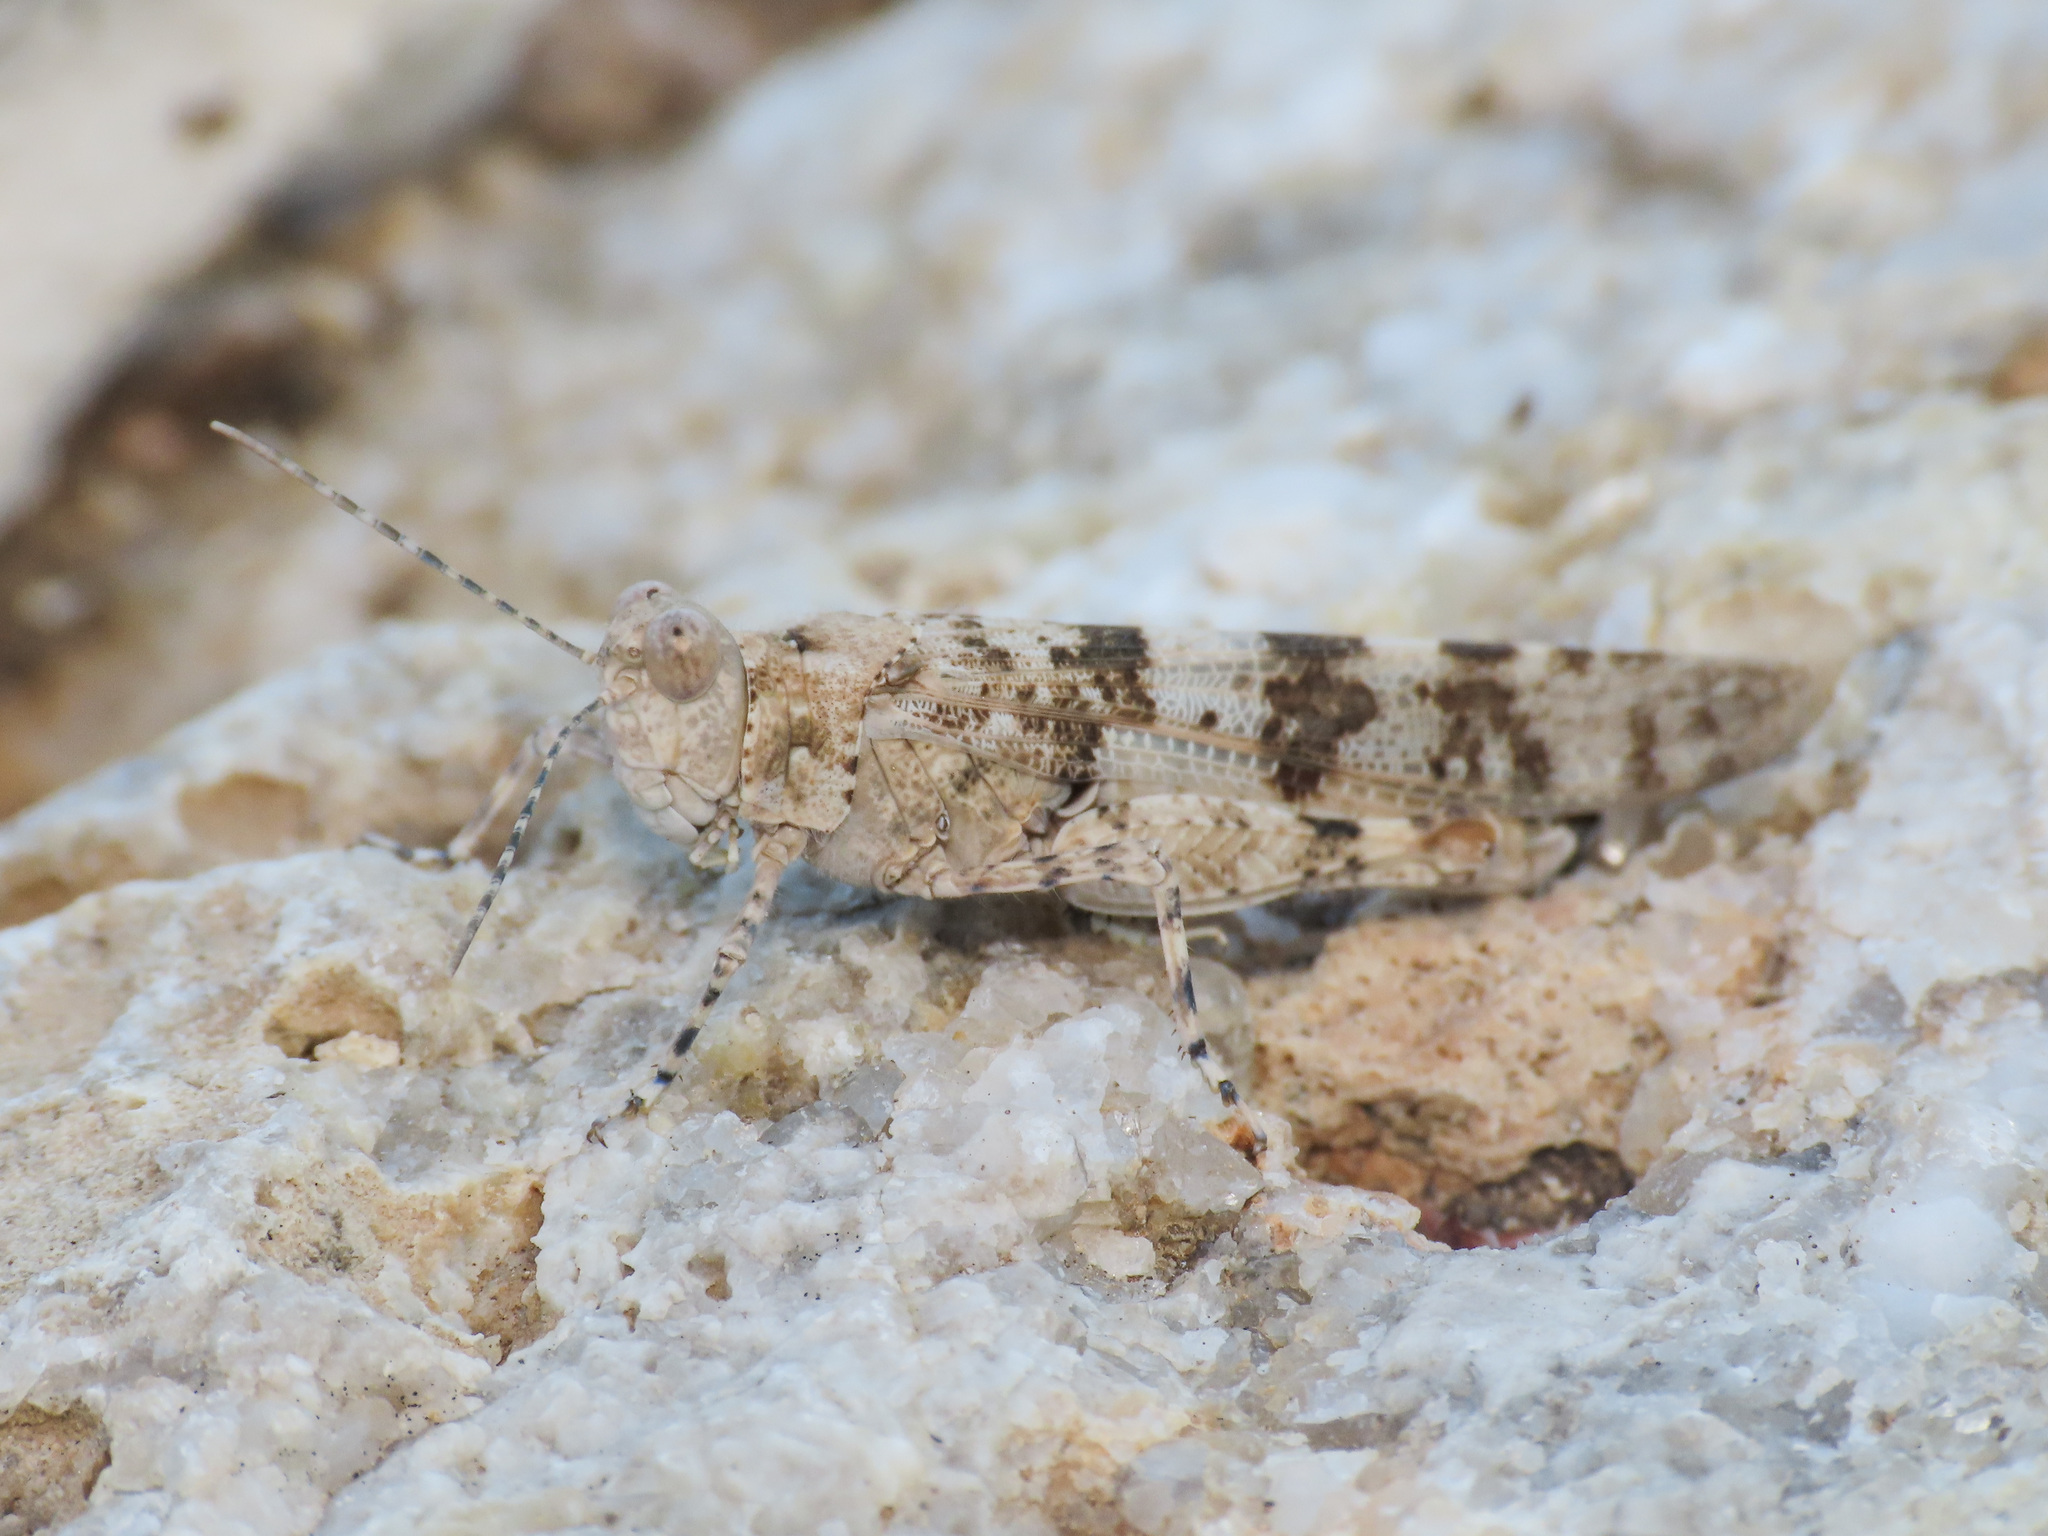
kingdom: Animalia
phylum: Arthropoda
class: Insecta
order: Orthoptera
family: Acrididae
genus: Sphingonotus
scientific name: Sphingonotus personatus
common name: Italian sand grasshopper
